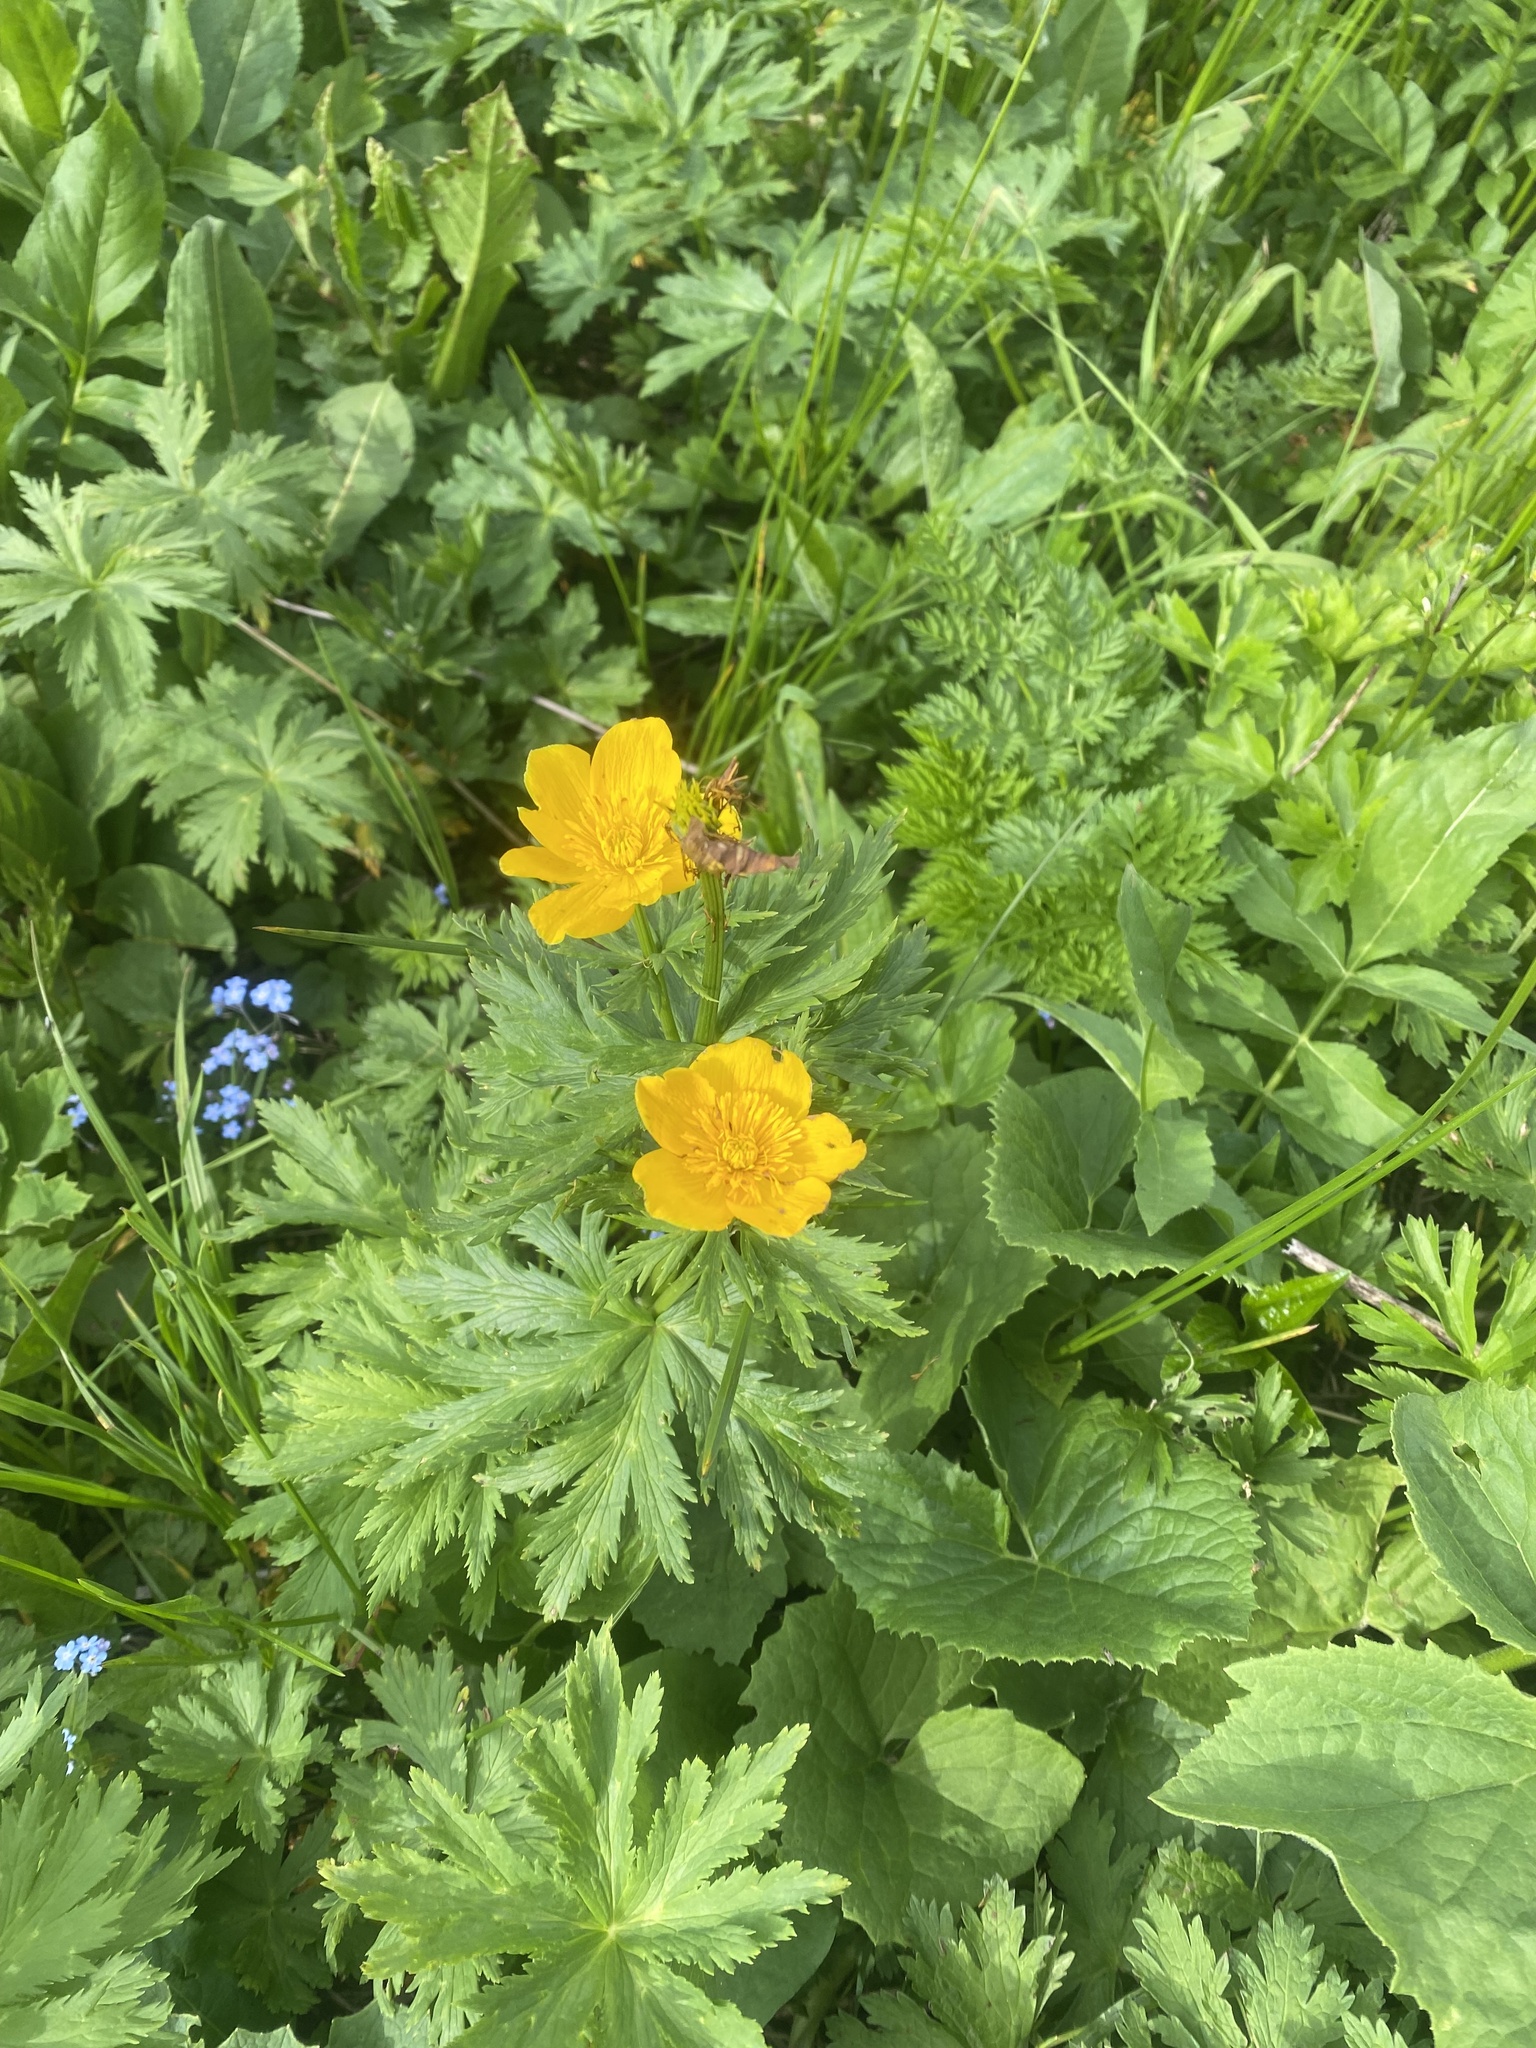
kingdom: Plantae
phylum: Tracheophyta
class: Magnoliopsida
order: Ranunculales
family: Ranunculaceae
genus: Trollius
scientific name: Trollius ranunculinus
